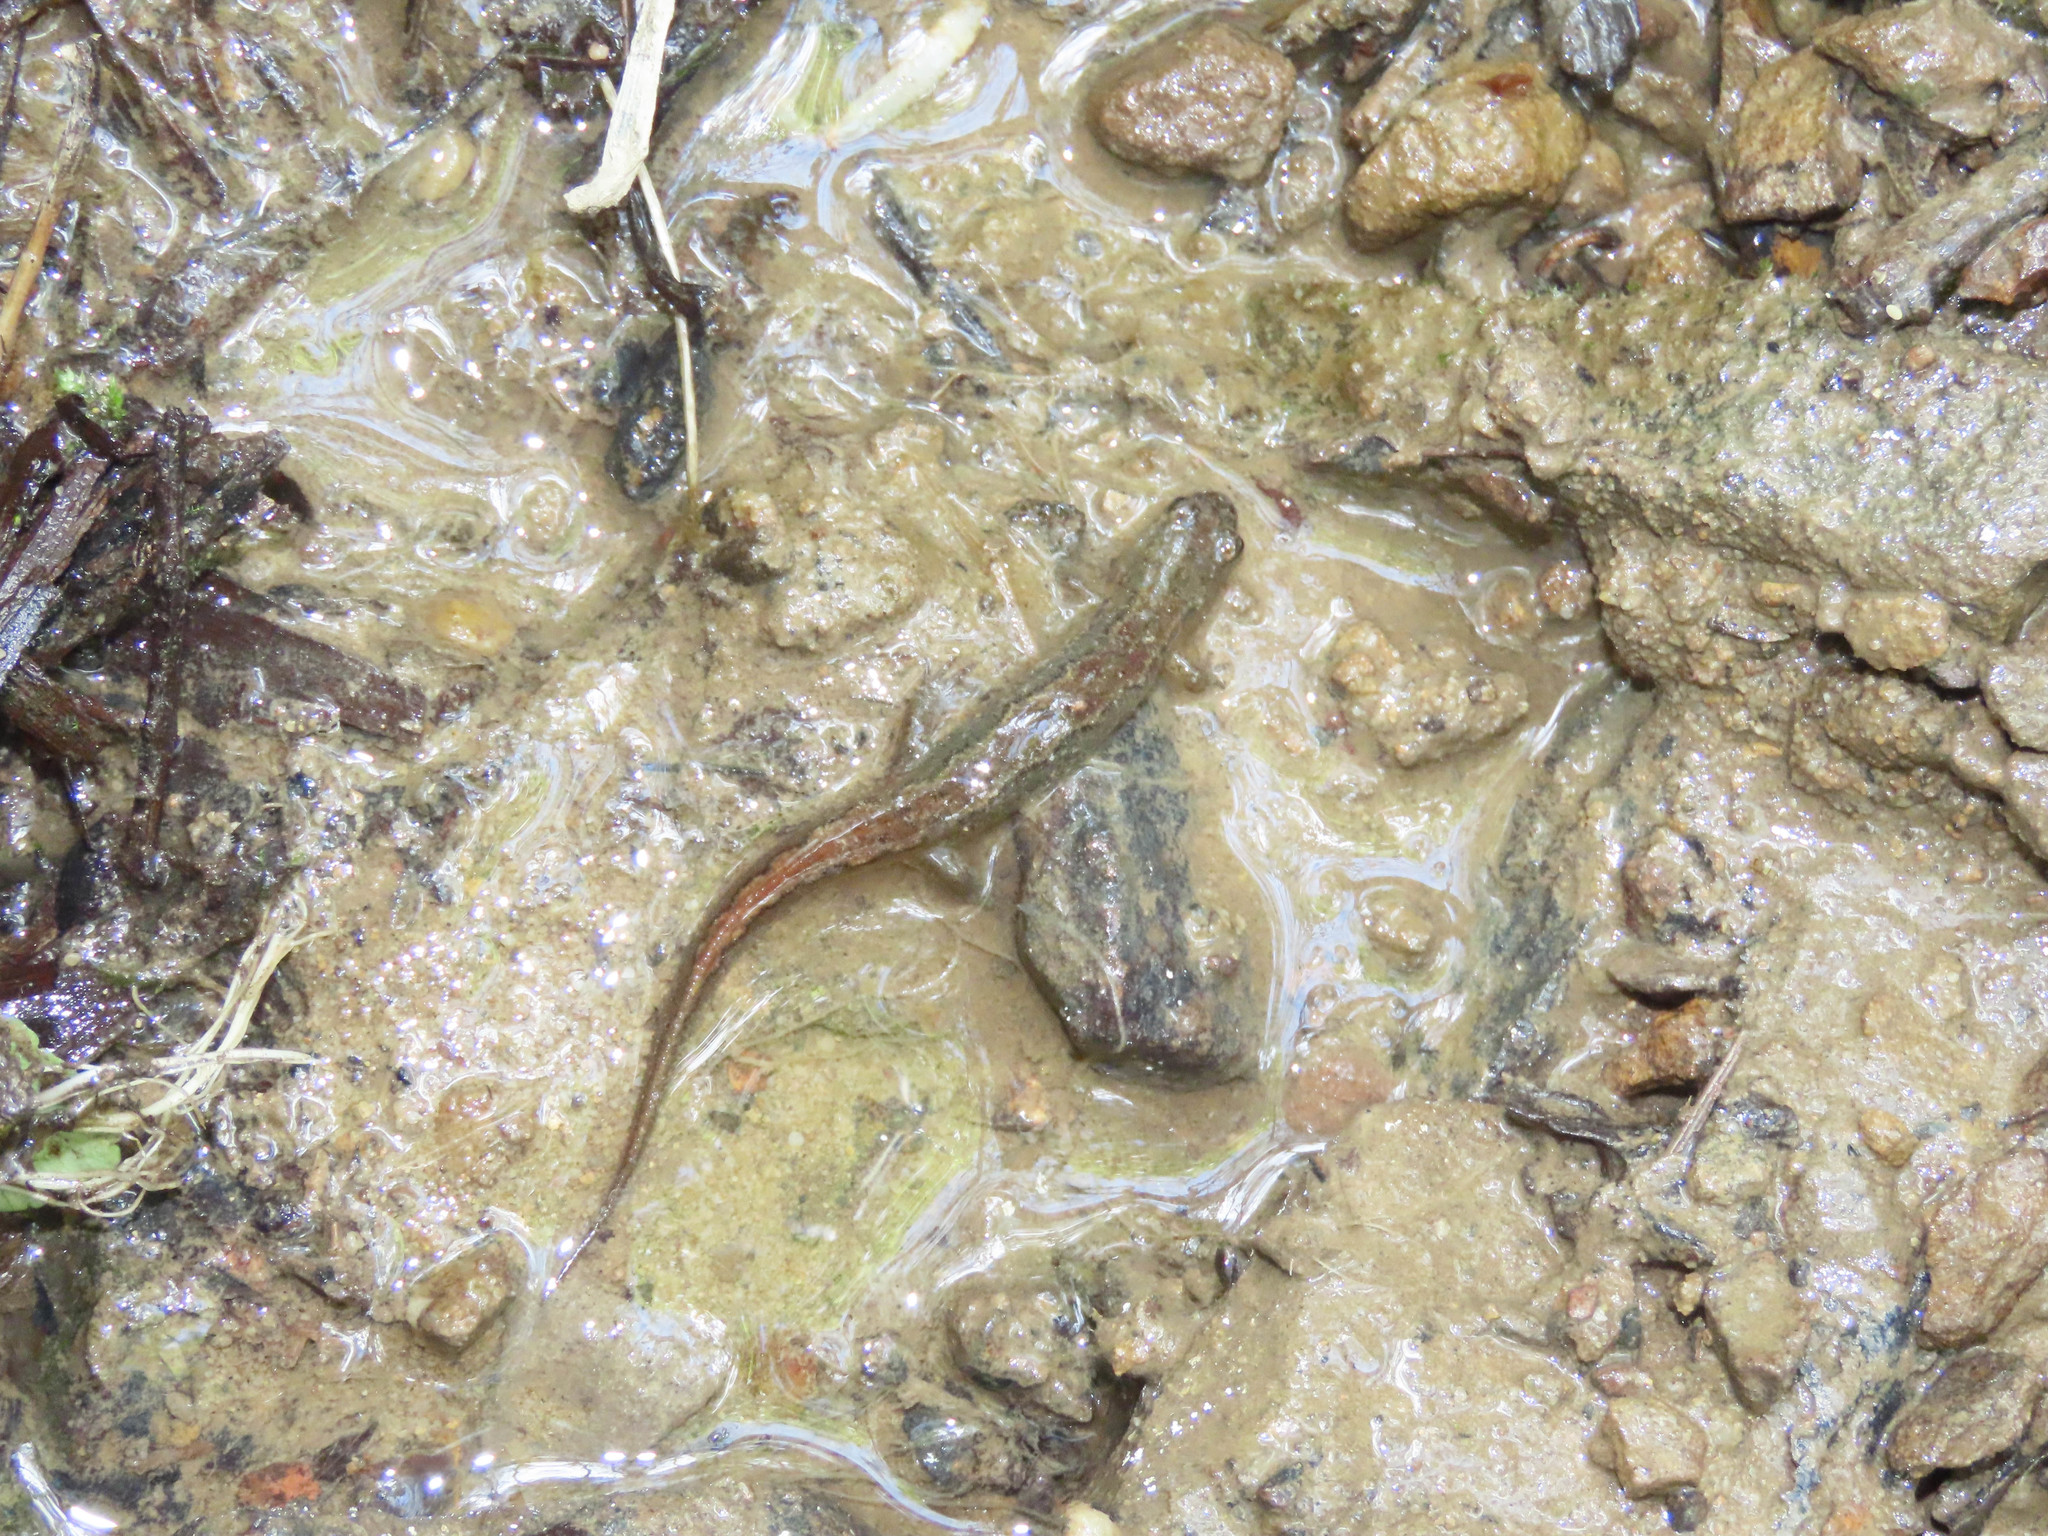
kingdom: Animalia
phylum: Chordata
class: Amphibia
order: Caudata
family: Plethodontidae
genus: Desmognathus
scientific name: Desmognathus fuscus
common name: Northern dusky salamander
